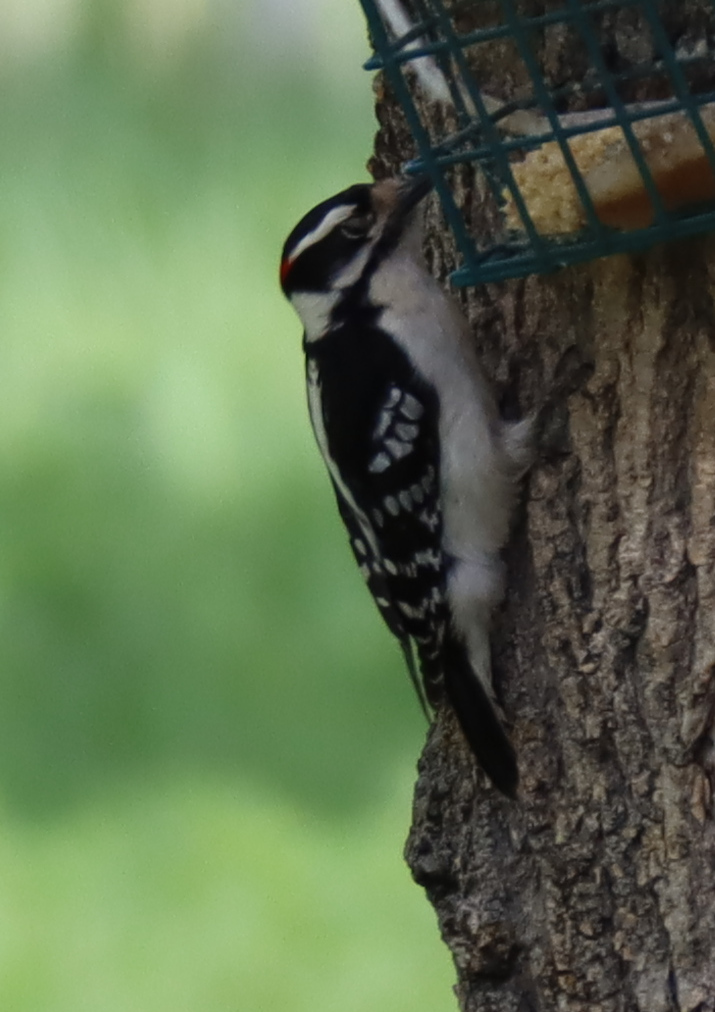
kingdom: Animalia
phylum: Chordata
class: Aves
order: Piciformes
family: Picidae
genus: Dryobates
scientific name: Dryobates pubescens
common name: Downy woodpecker
